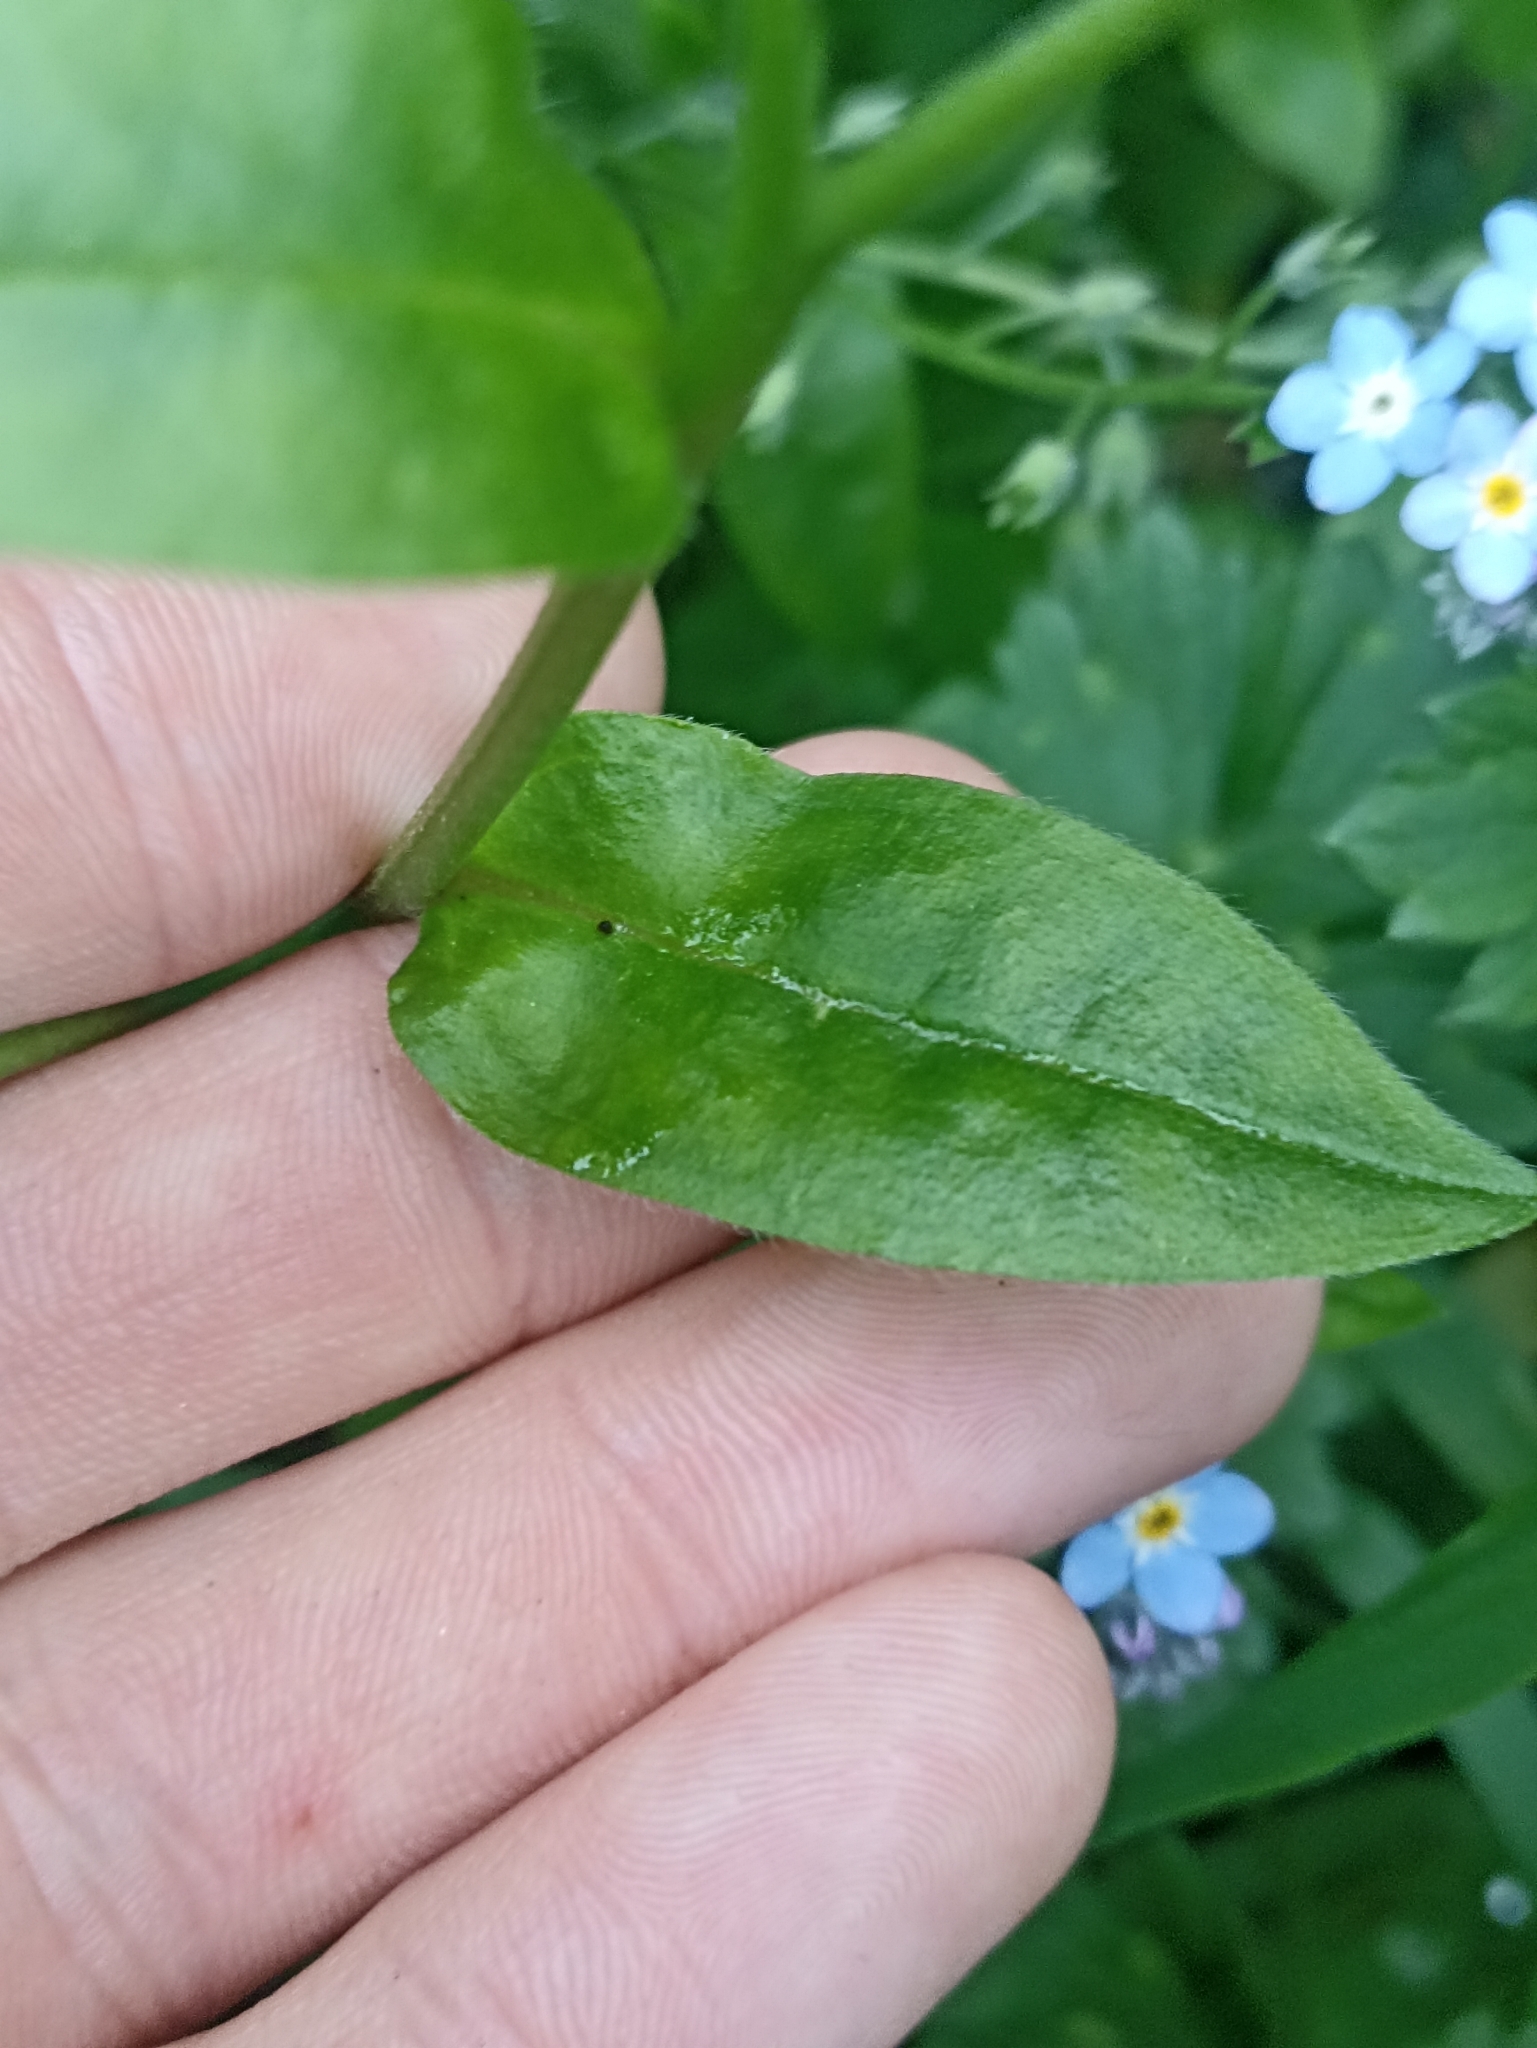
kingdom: Plantae
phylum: Tracheophyta
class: Magnoliopsida
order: Boraginales
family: Boraginaceae
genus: Myosotis
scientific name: Myosotis sylvatica
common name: Wood forget-me-not
